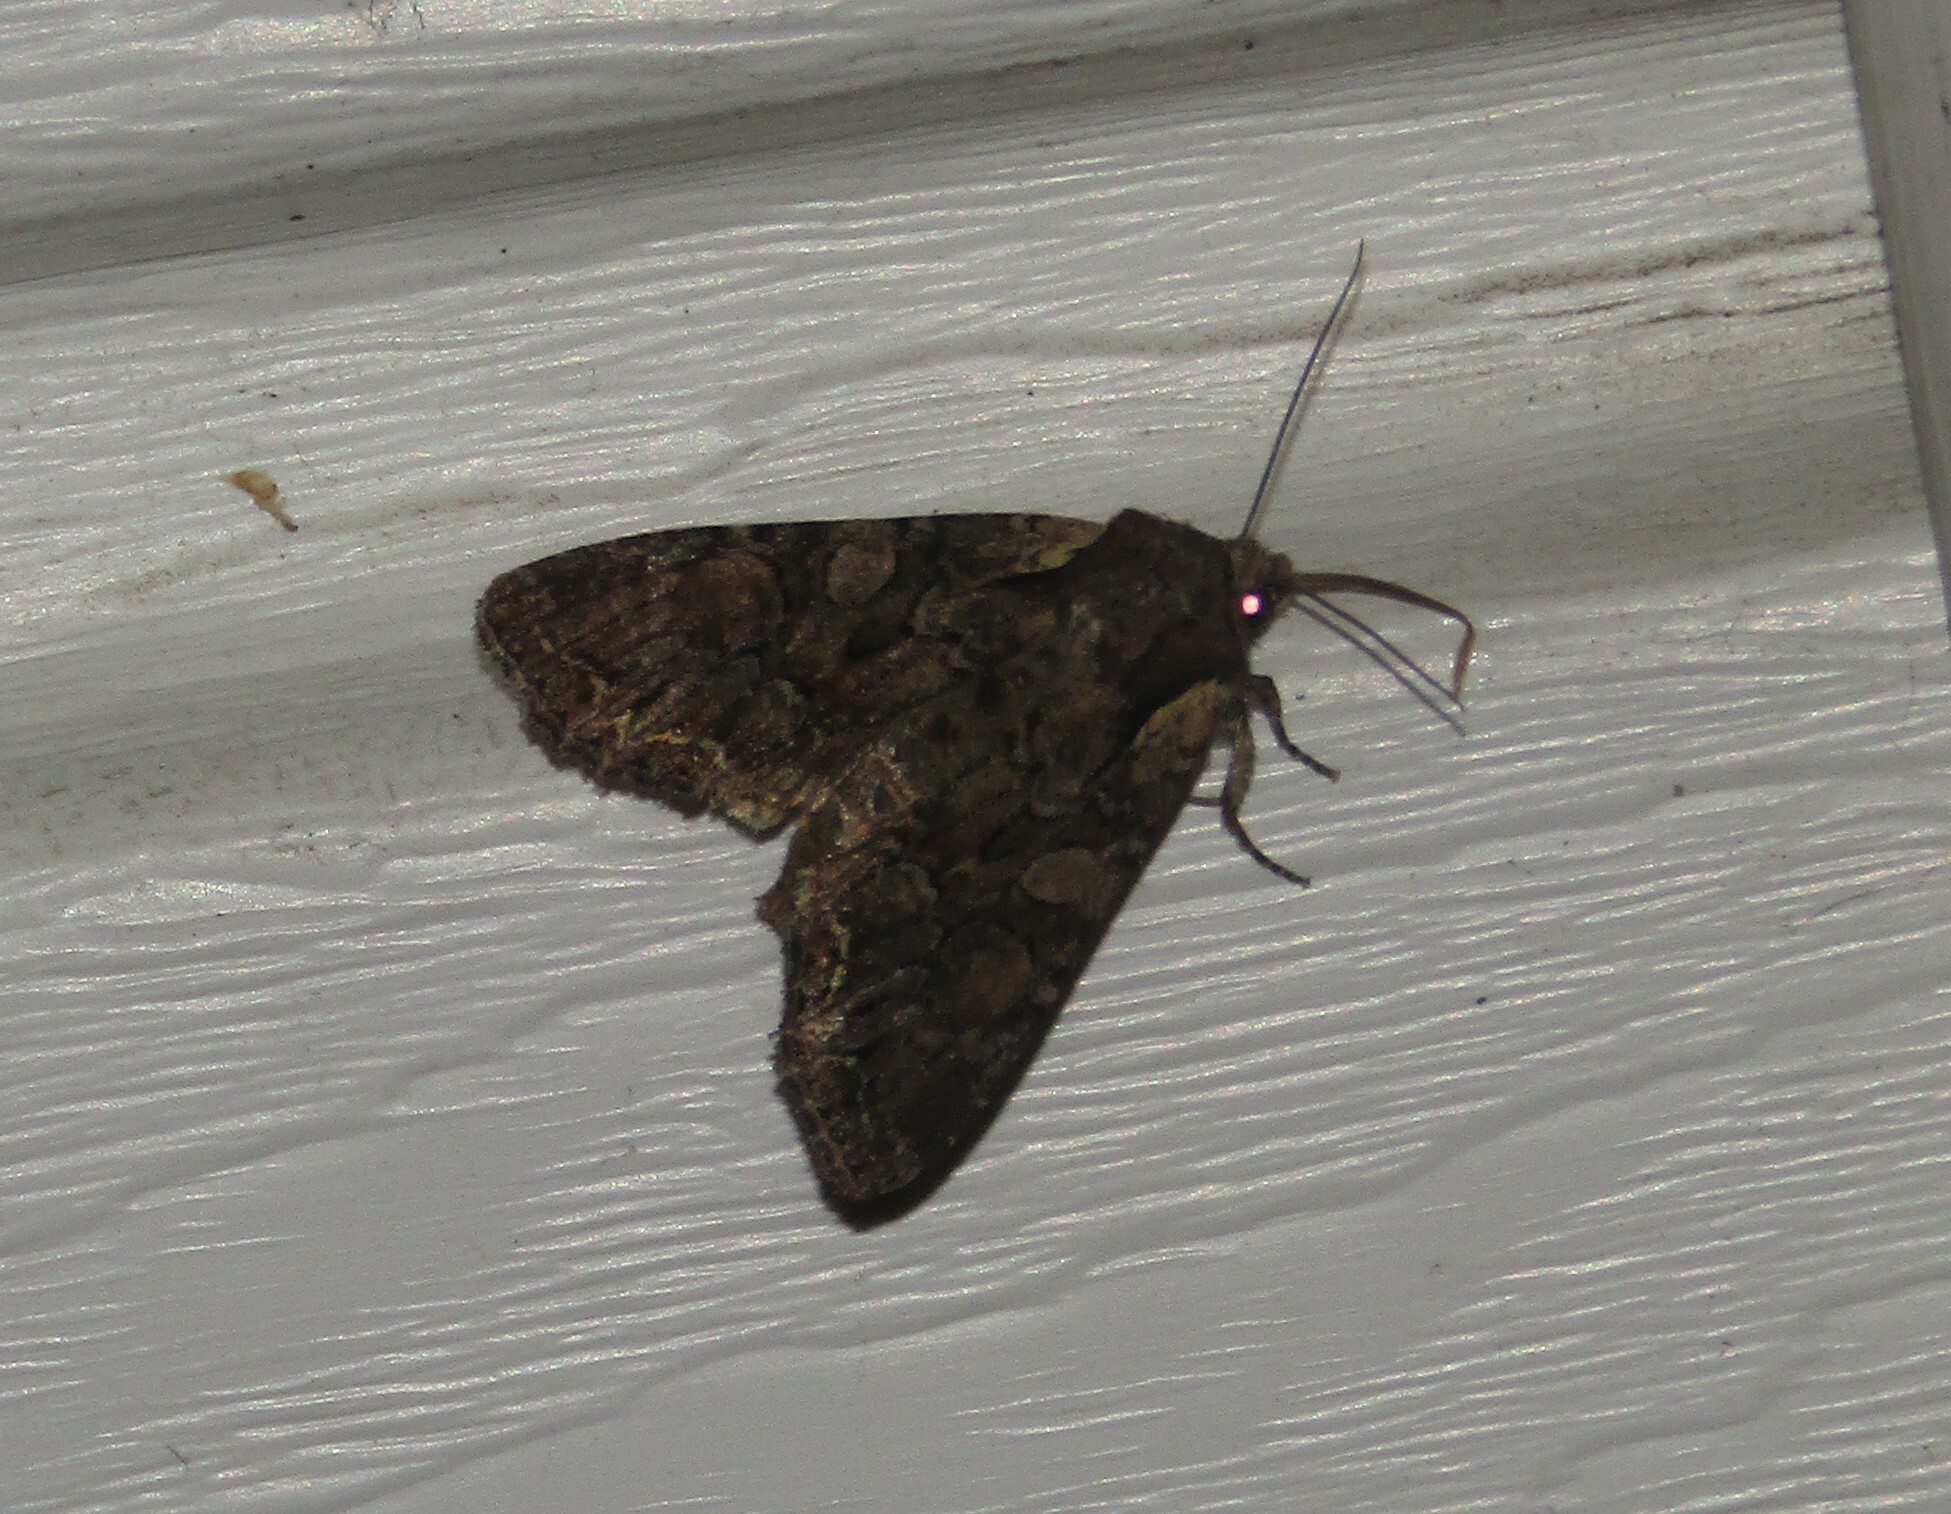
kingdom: Animalia
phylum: Arthropoda
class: Insecta
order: Lepidoptera
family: Noctuidae
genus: Lacanobia
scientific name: Lacanobia thalassina
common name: Pale-shouldered brocade
